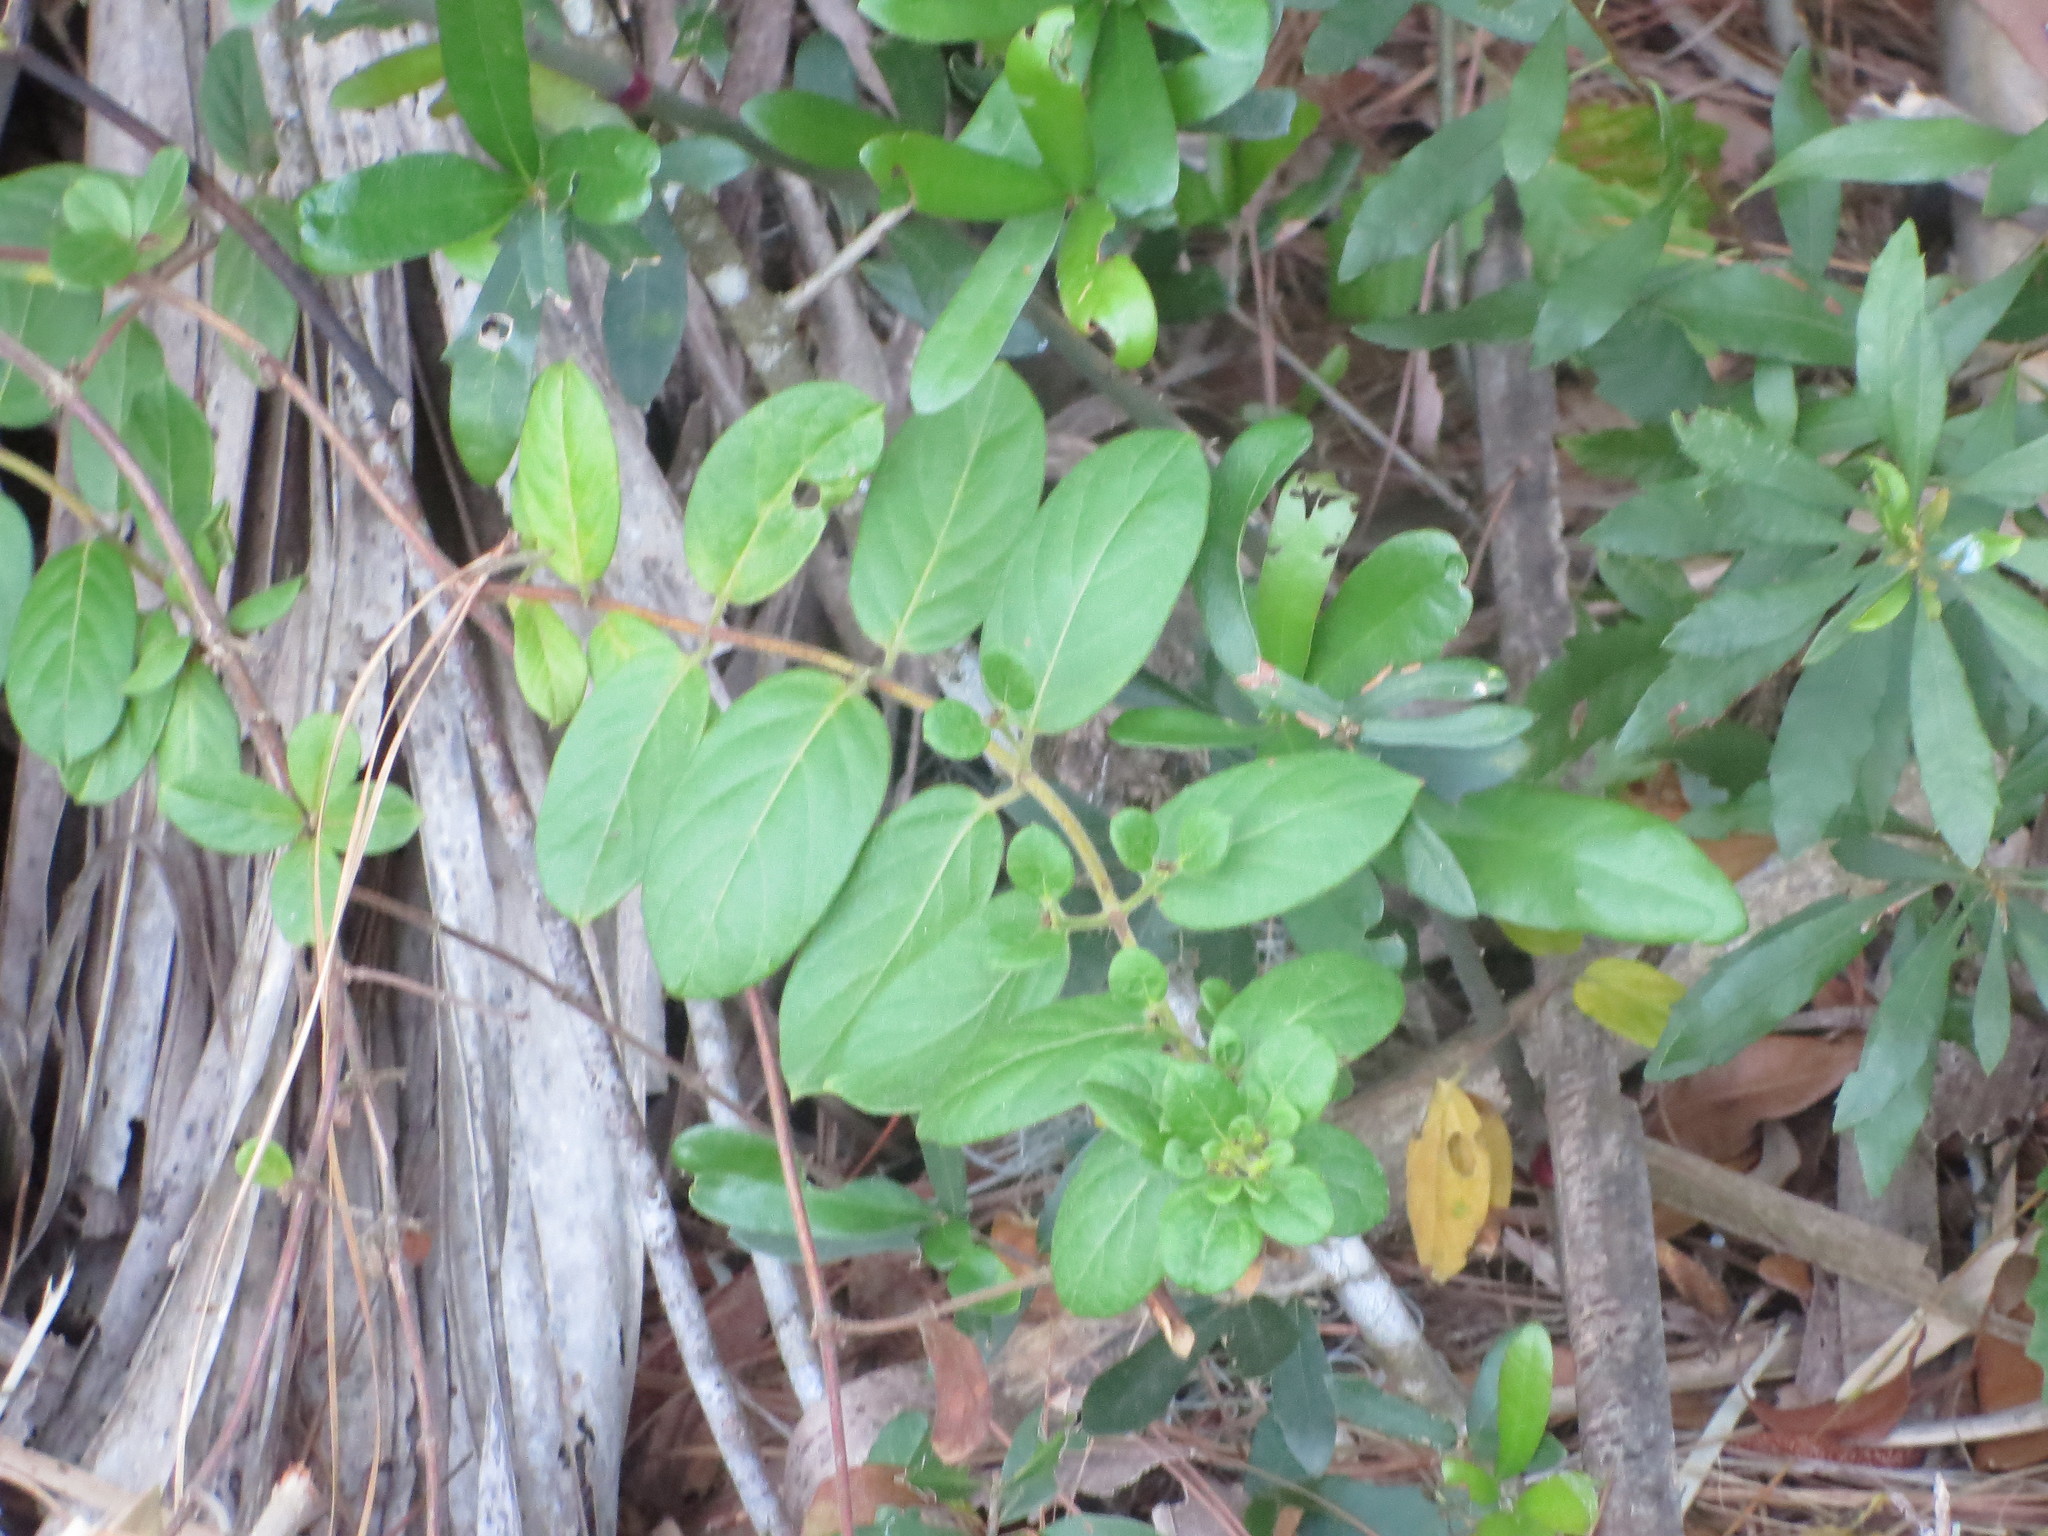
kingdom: Plantae
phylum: Tracheophyta
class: Magnoliopsida
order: Dipsacales
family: Caprifoliaceae
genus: Lonicera
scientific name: Lonicera japonica
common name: Japanese honeysuckle
